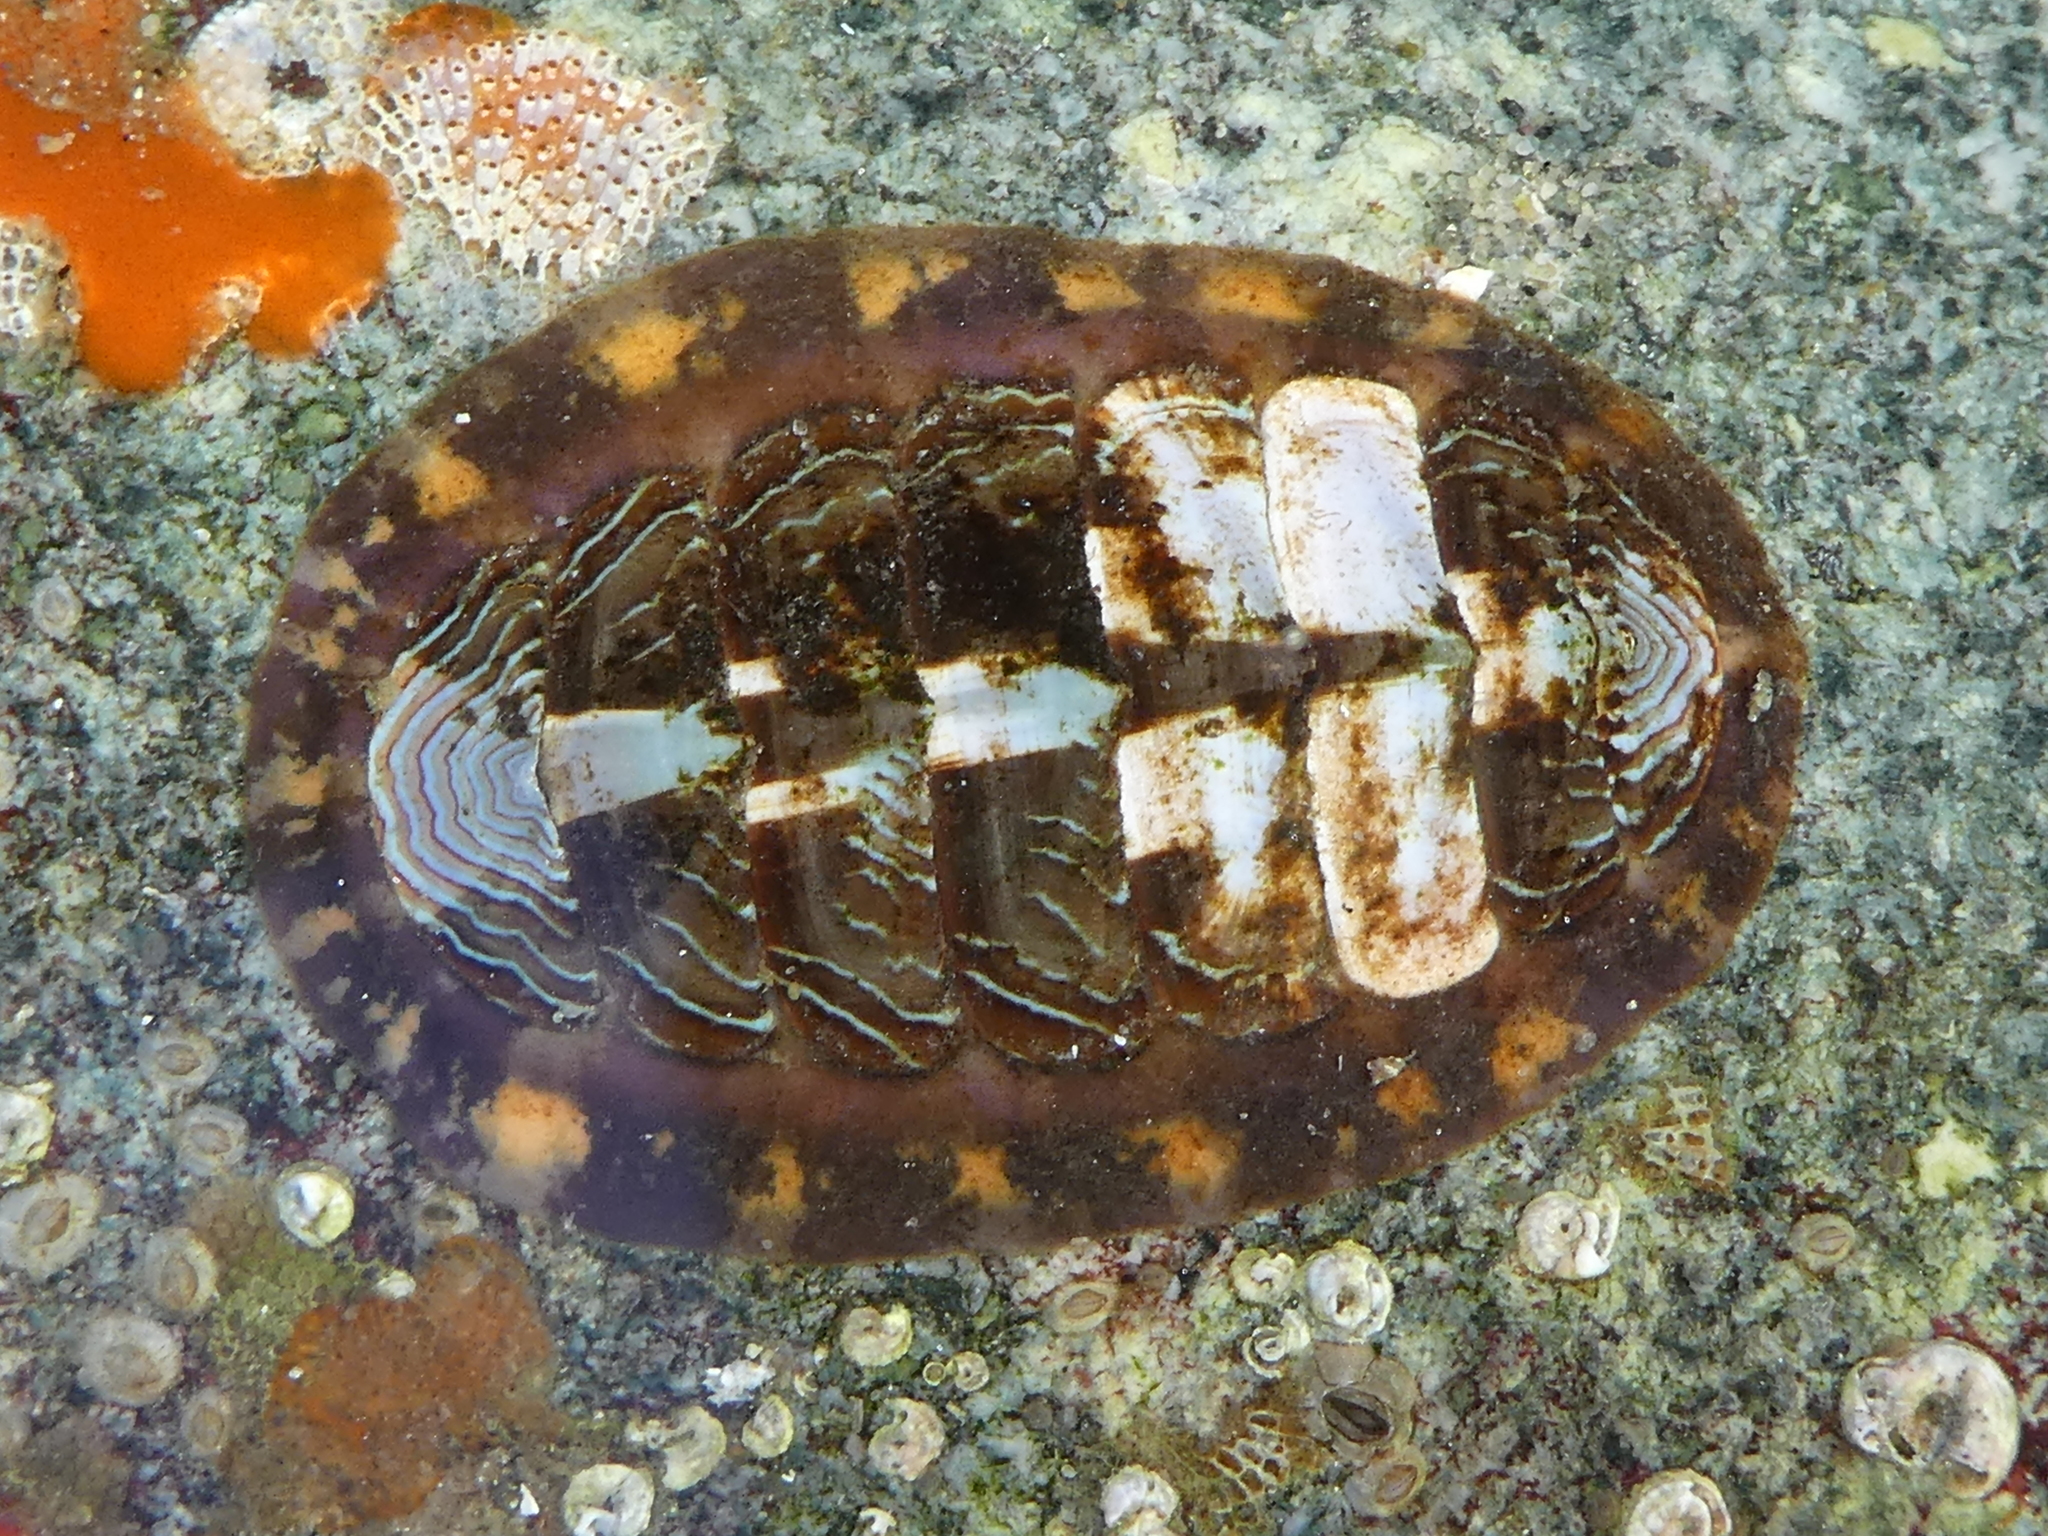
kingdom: Animalia
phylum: Mollusca
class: Polyplacophora
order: Chitonida
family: Tonicellidae
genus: Tonicella
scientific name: Tonicella lineata
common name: Lined chiton
